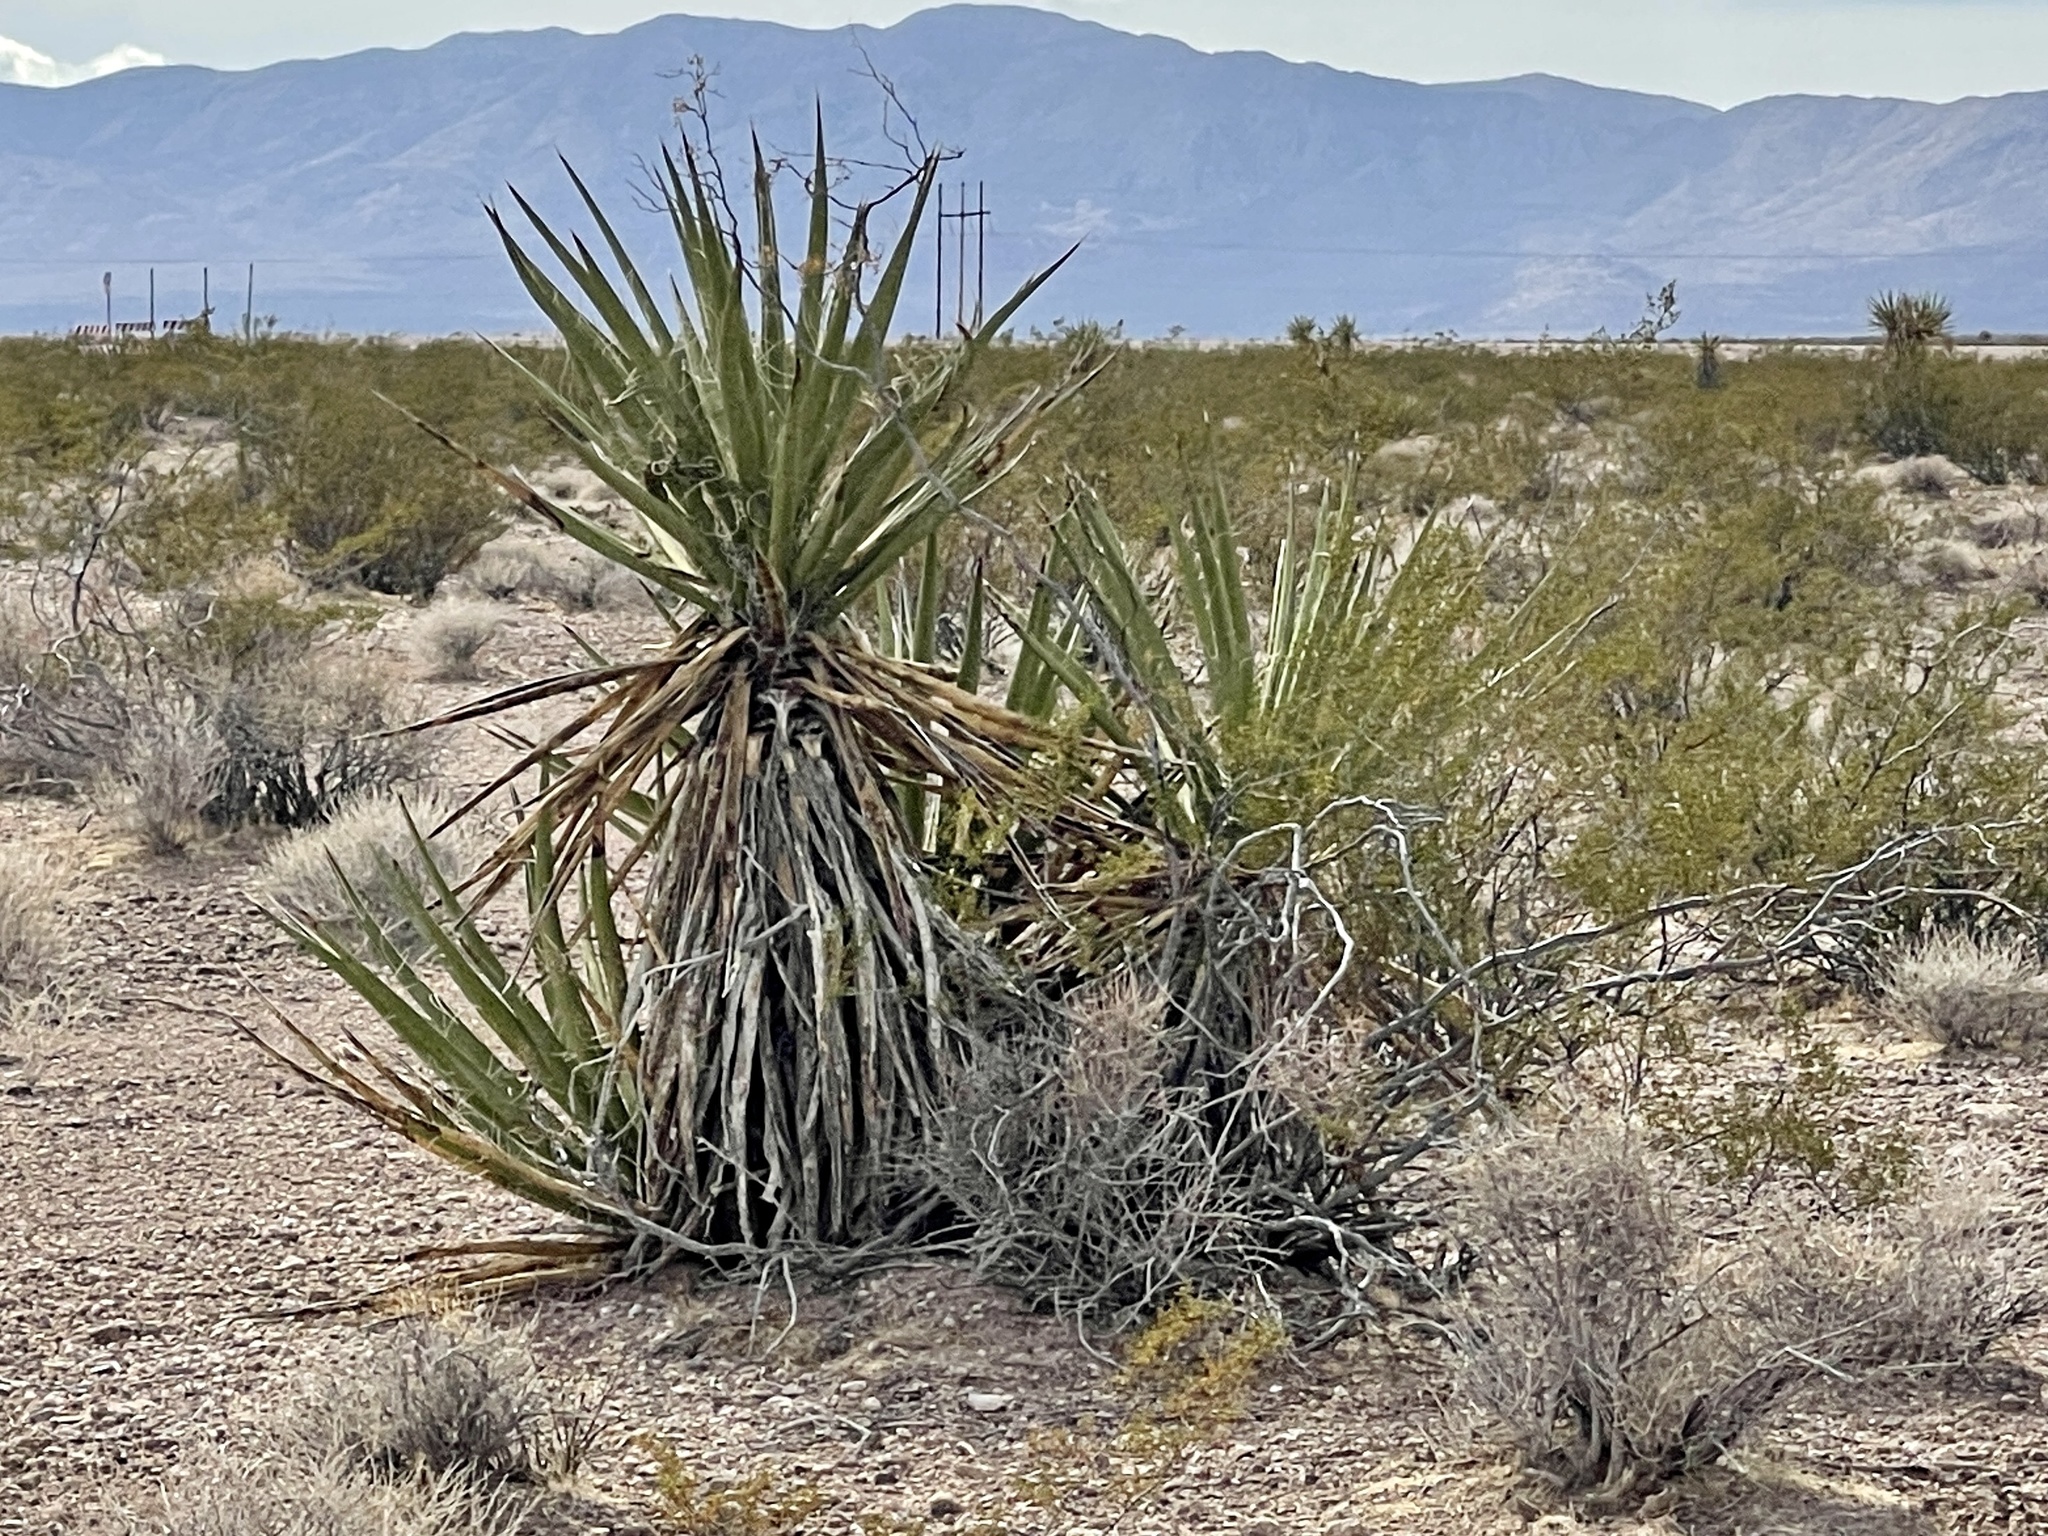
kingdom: Plantae
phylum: Tracheophyta
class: Liliopsida
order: Asparagales
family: Asparagaceae
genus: Yucca
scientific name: Yucca schidigera
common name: Mojave yucca
